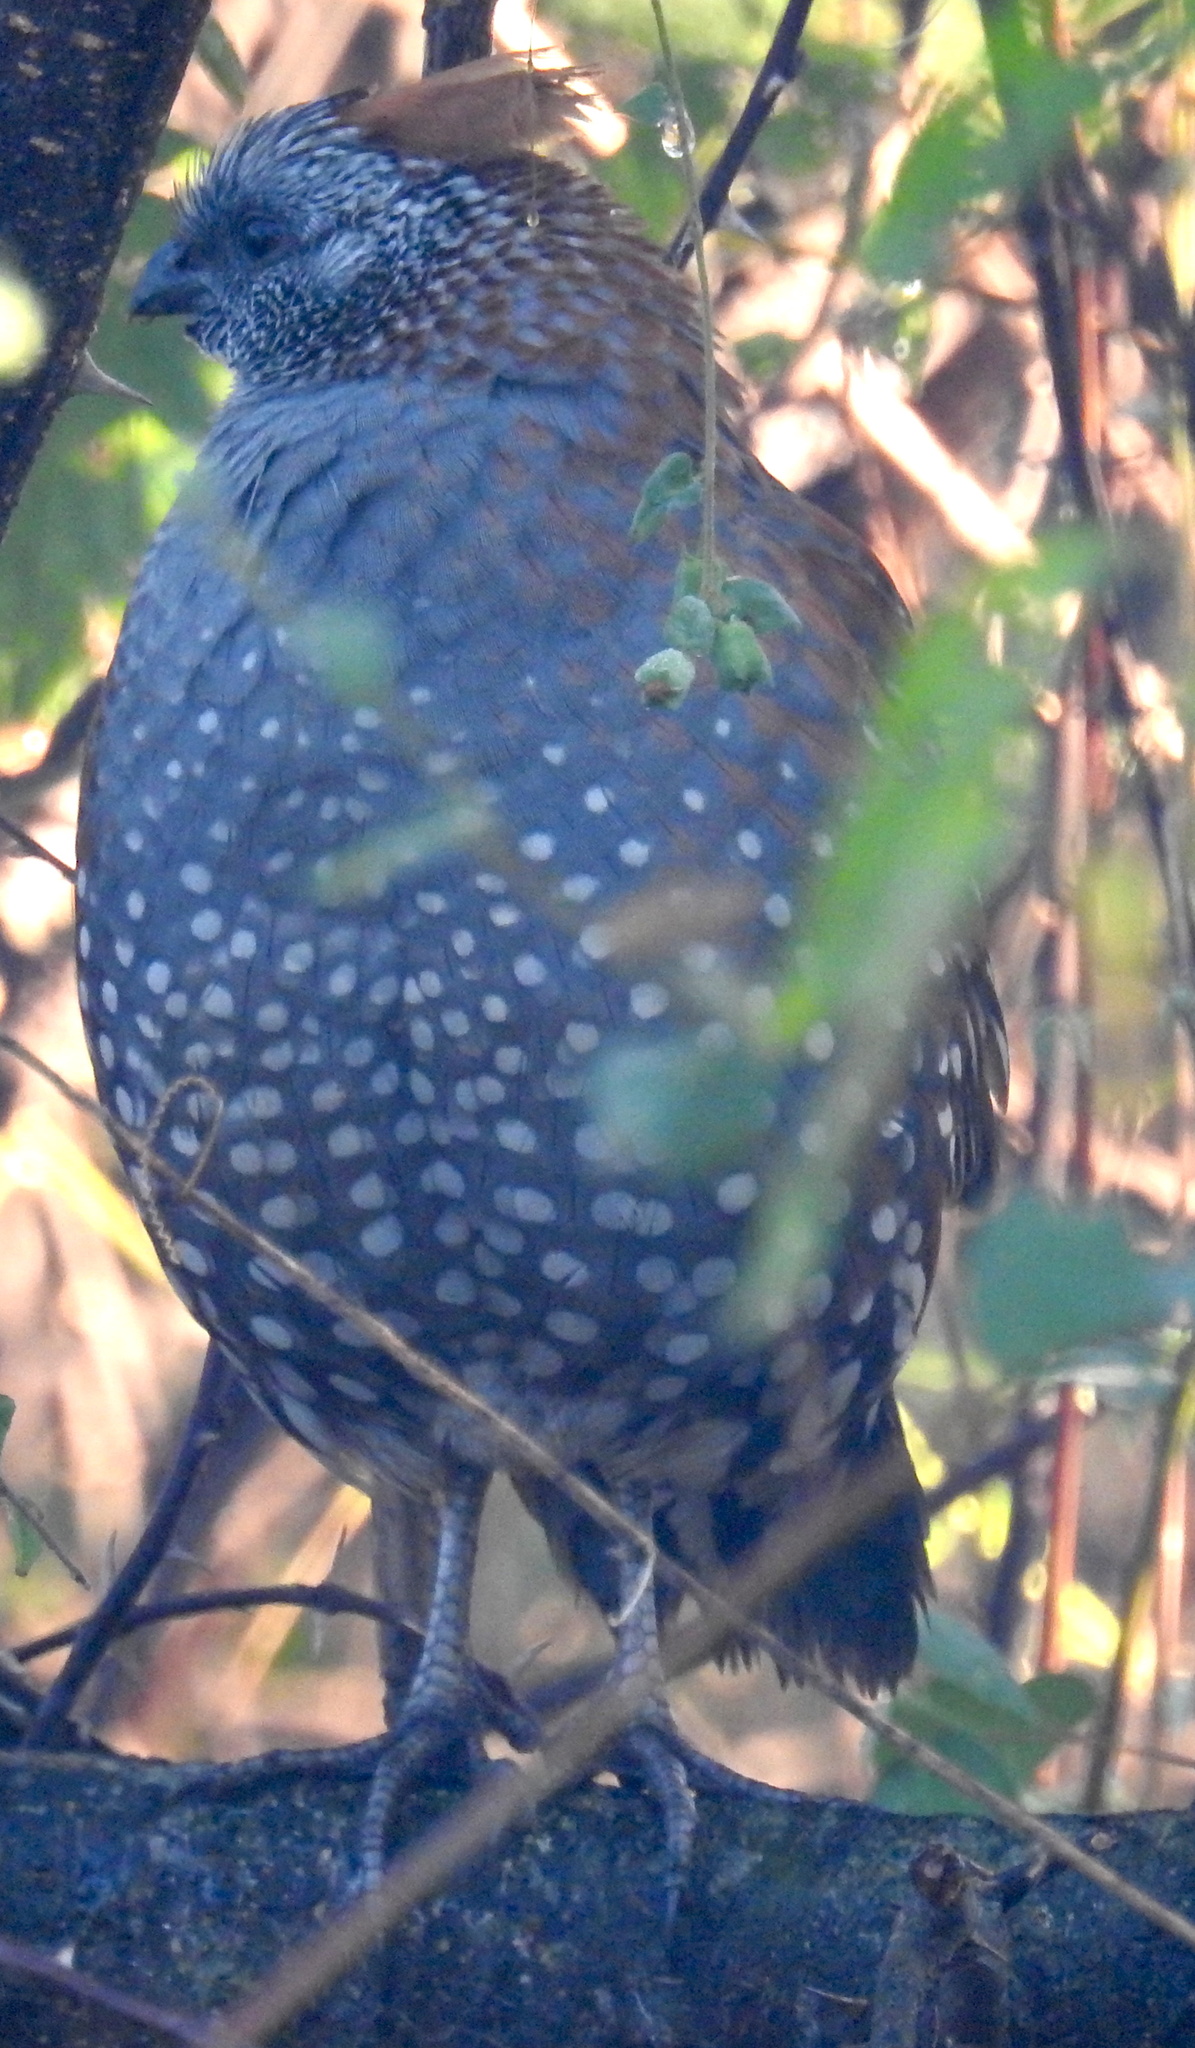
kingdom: Animalia
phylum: Chordata
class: Aves
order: Galliformes
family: Odontophoridae
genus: Callipepla
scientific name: Callipepla douglasii
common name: Elegant quail
